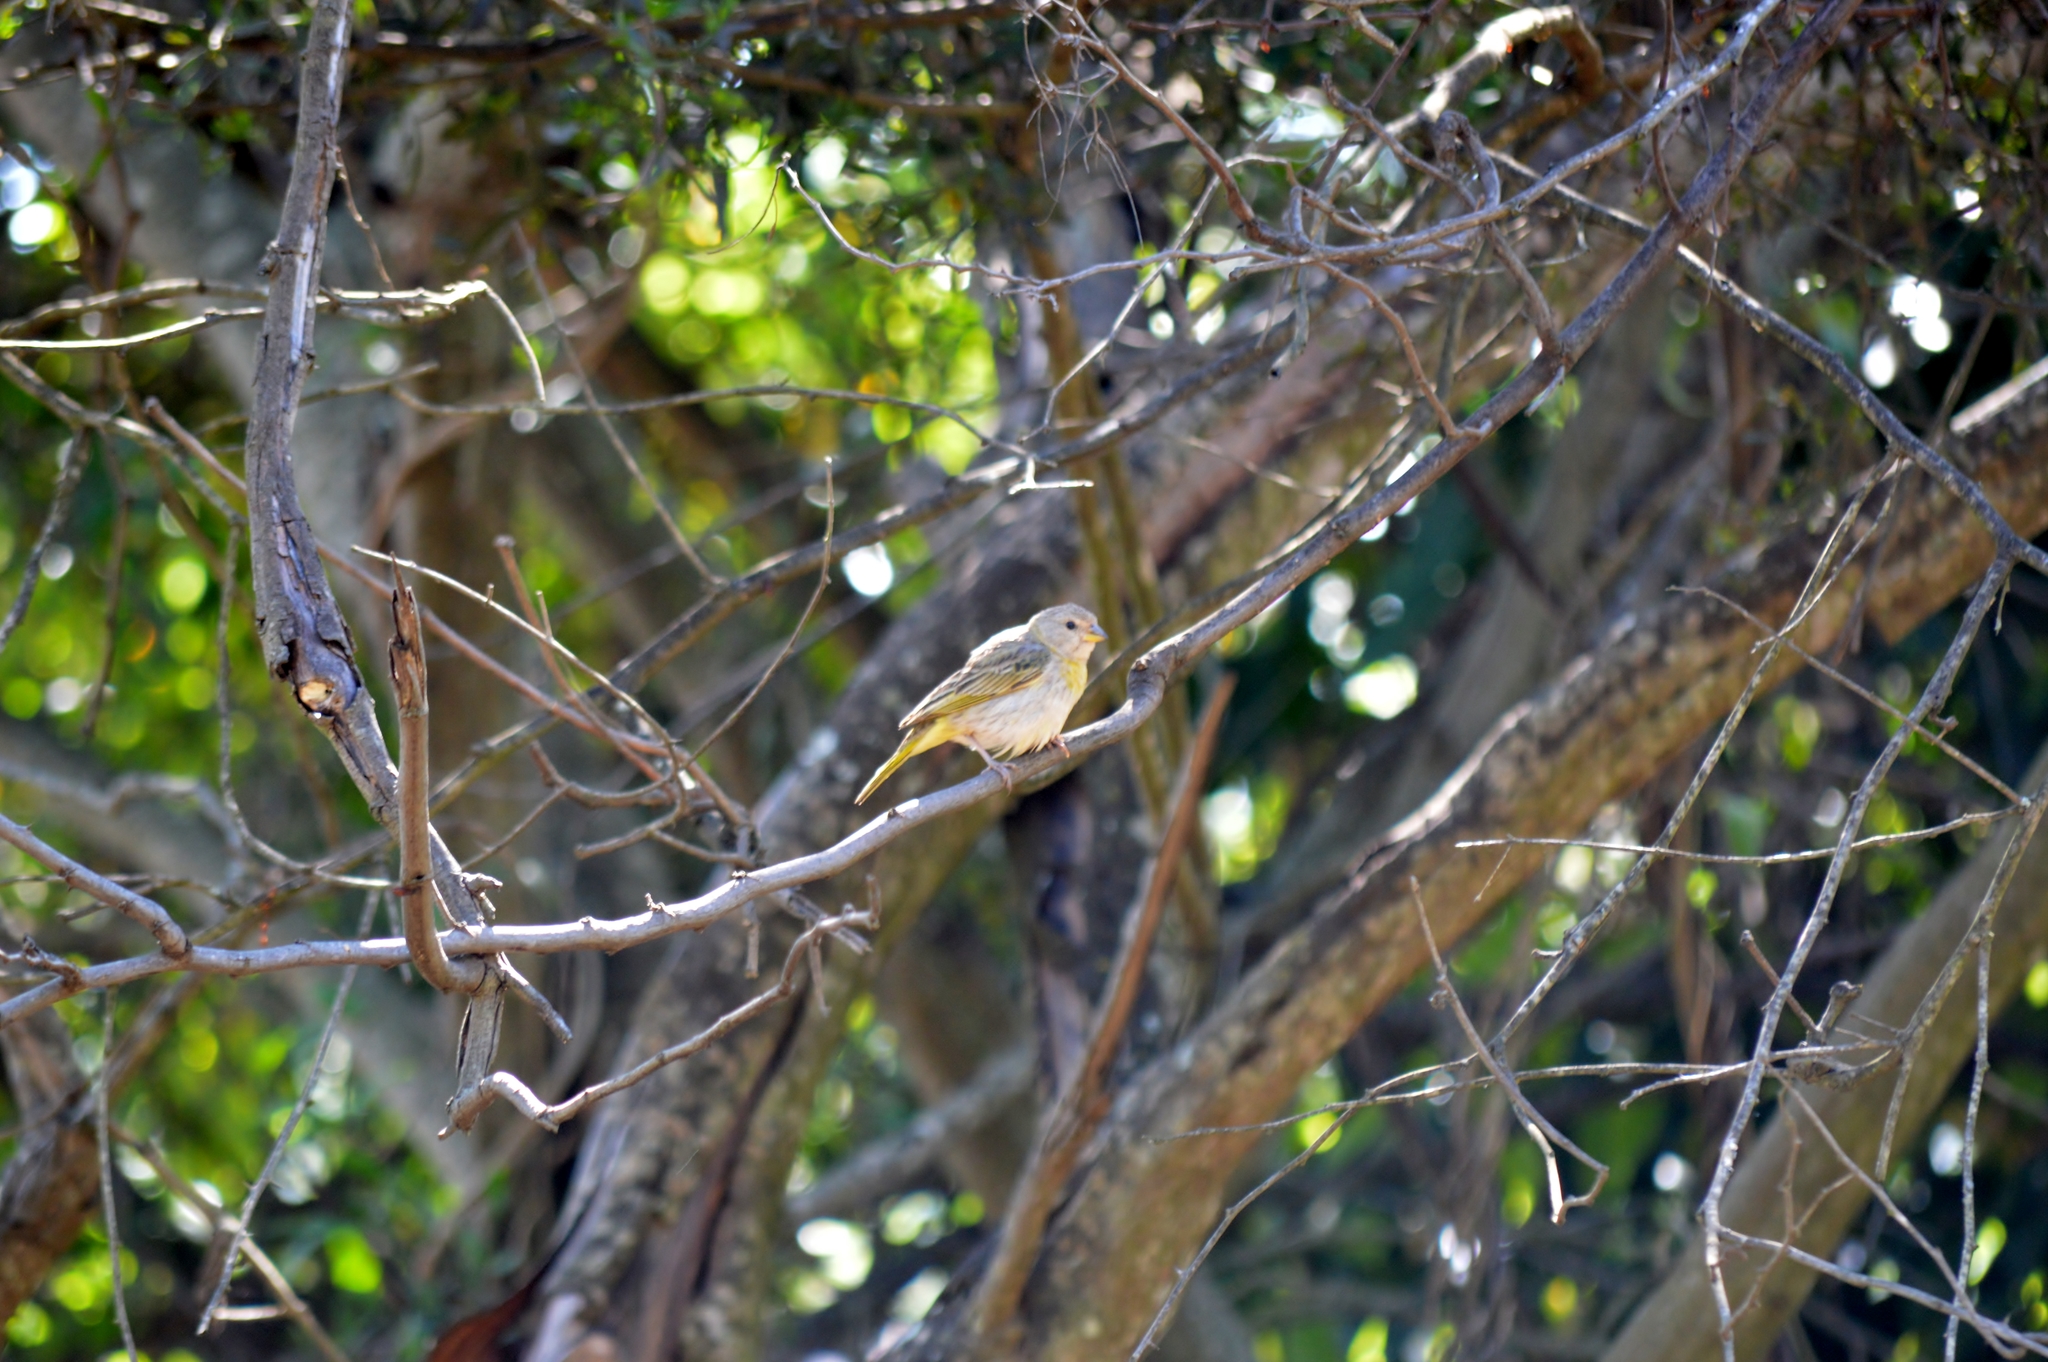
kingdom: Animalia
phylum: Chordata
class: Aves
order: Passeriformes
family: Thraupidae
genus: Sicalis
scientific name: Sicalis flaveola
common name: Saffron finch
